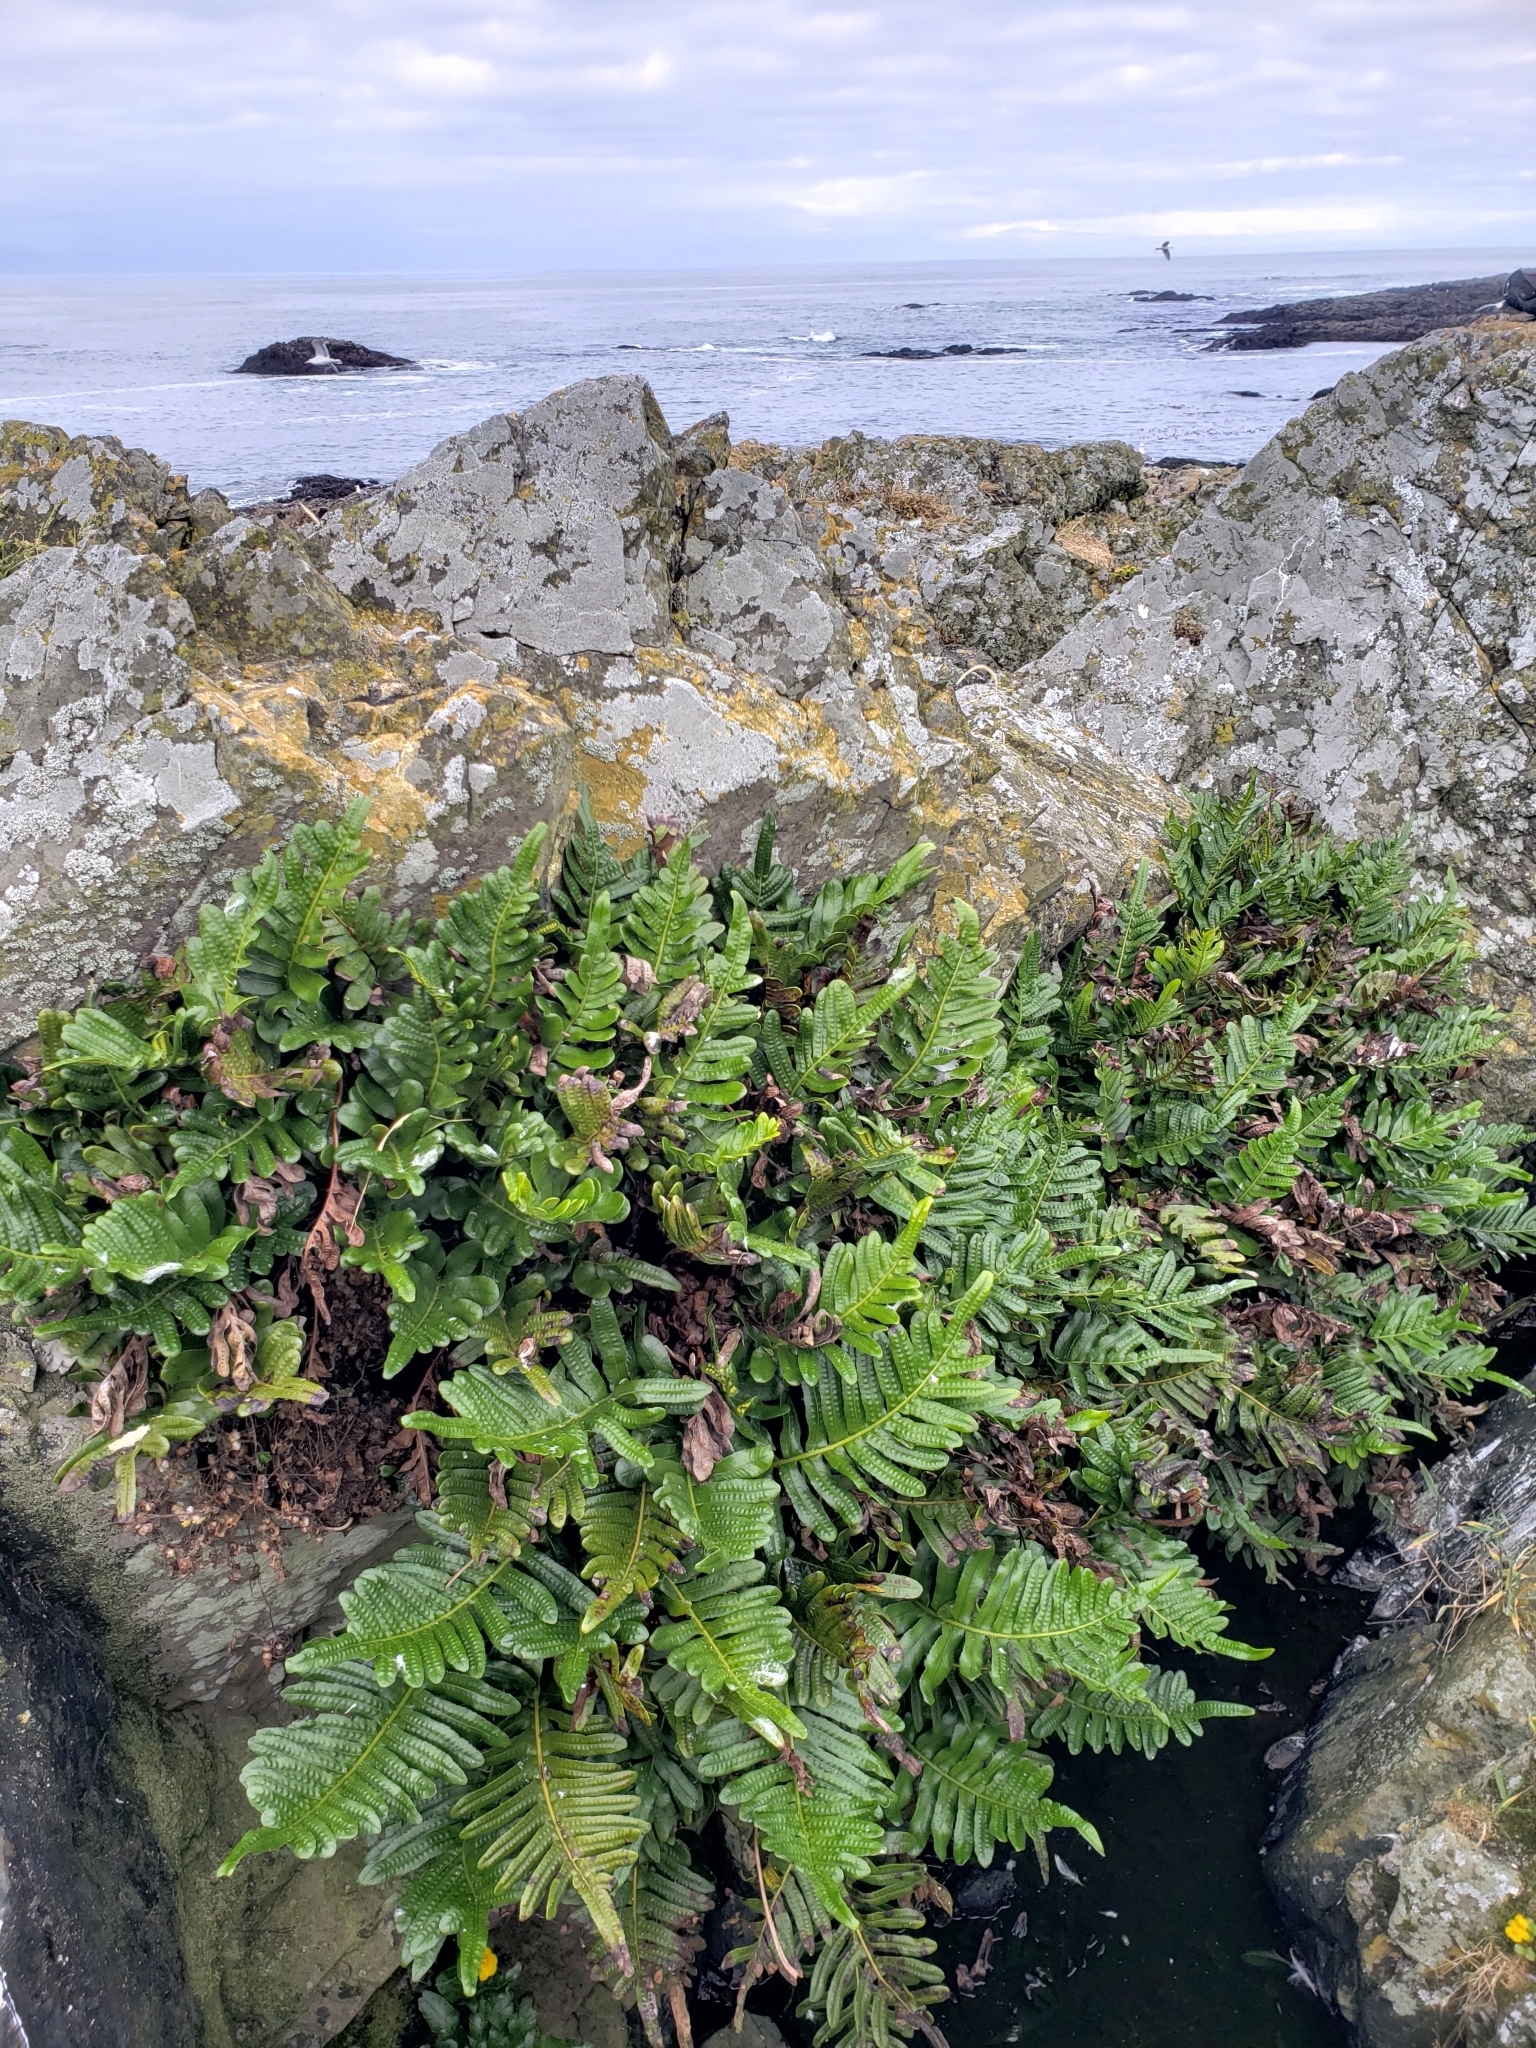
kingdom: Plantae
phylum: Tracheophyta
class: Polypodiopsida
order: Polypodiales
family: Polypodiaceae
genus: Polypodium
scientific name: Polypodium scouleri
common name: Scouler's polypody
